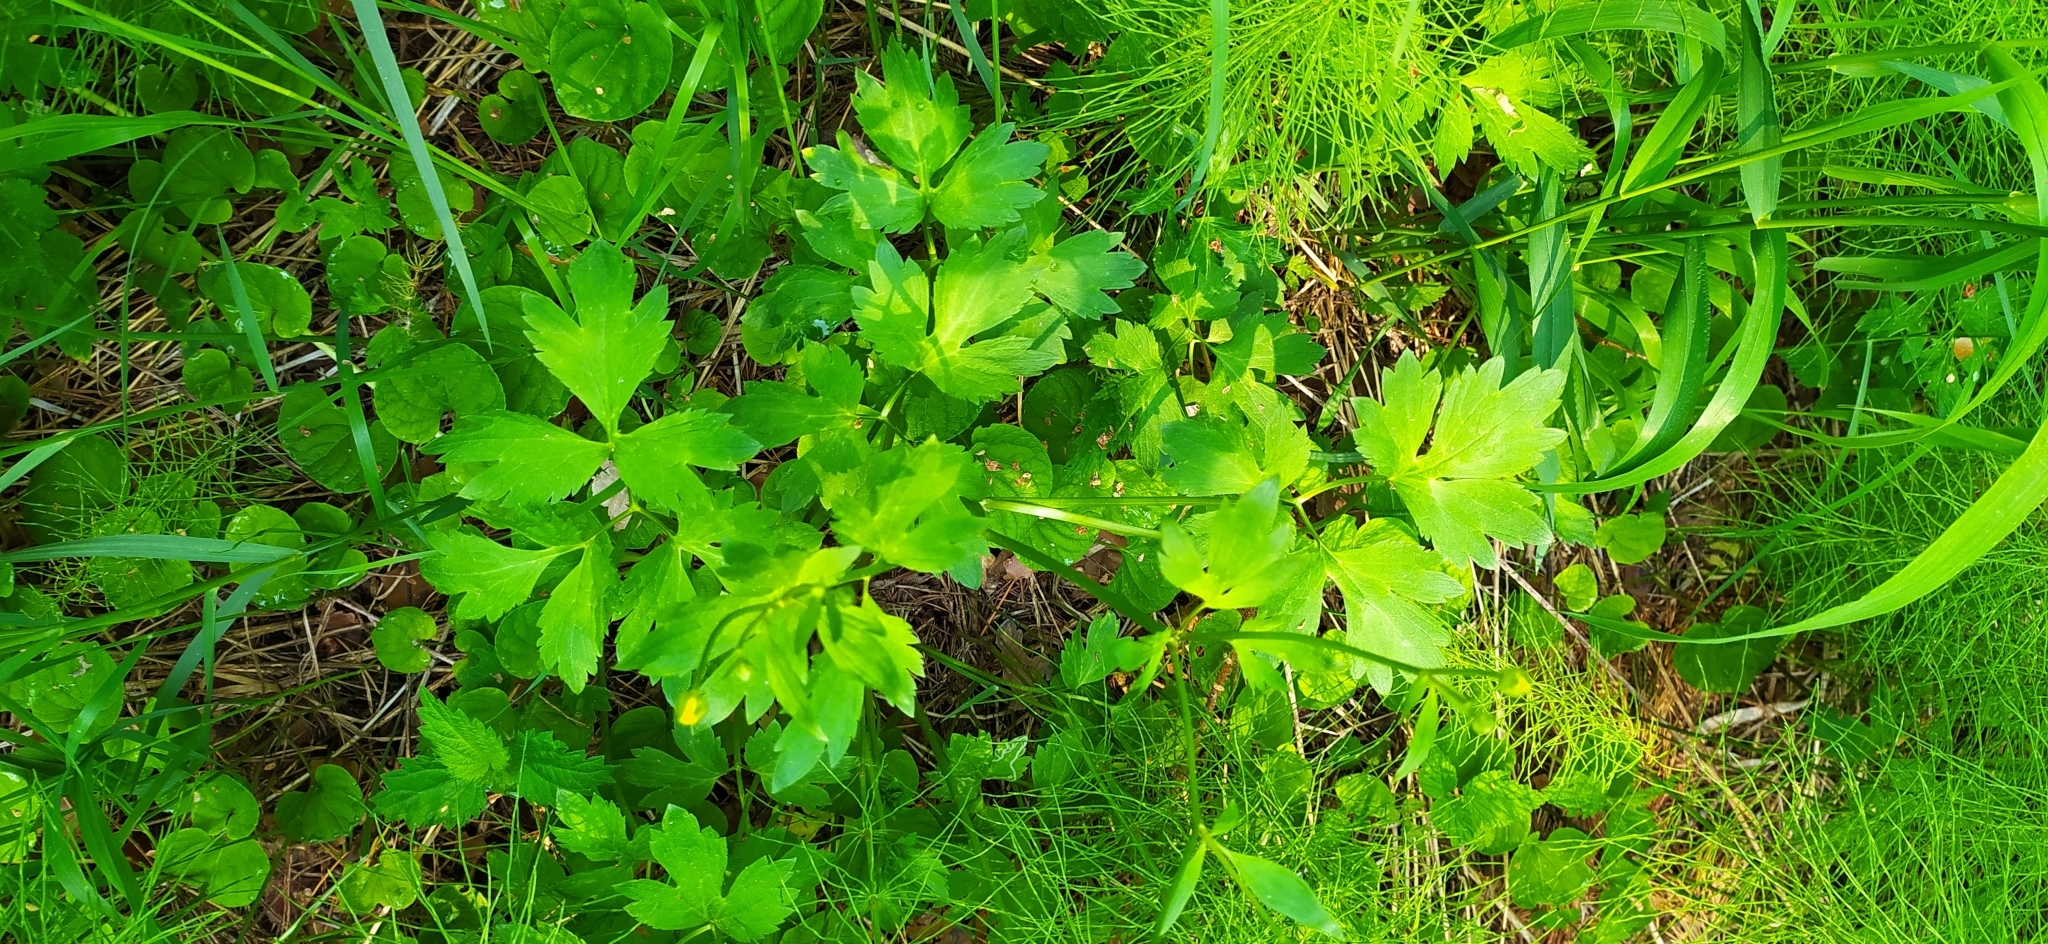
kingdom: Plantae
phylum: Tracheophyta
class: Magnoliopsida
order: Ranunculales
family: Ranunculaceae
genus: Ranunculus
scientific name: Ranunculus repens
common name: Creeping buttercup
